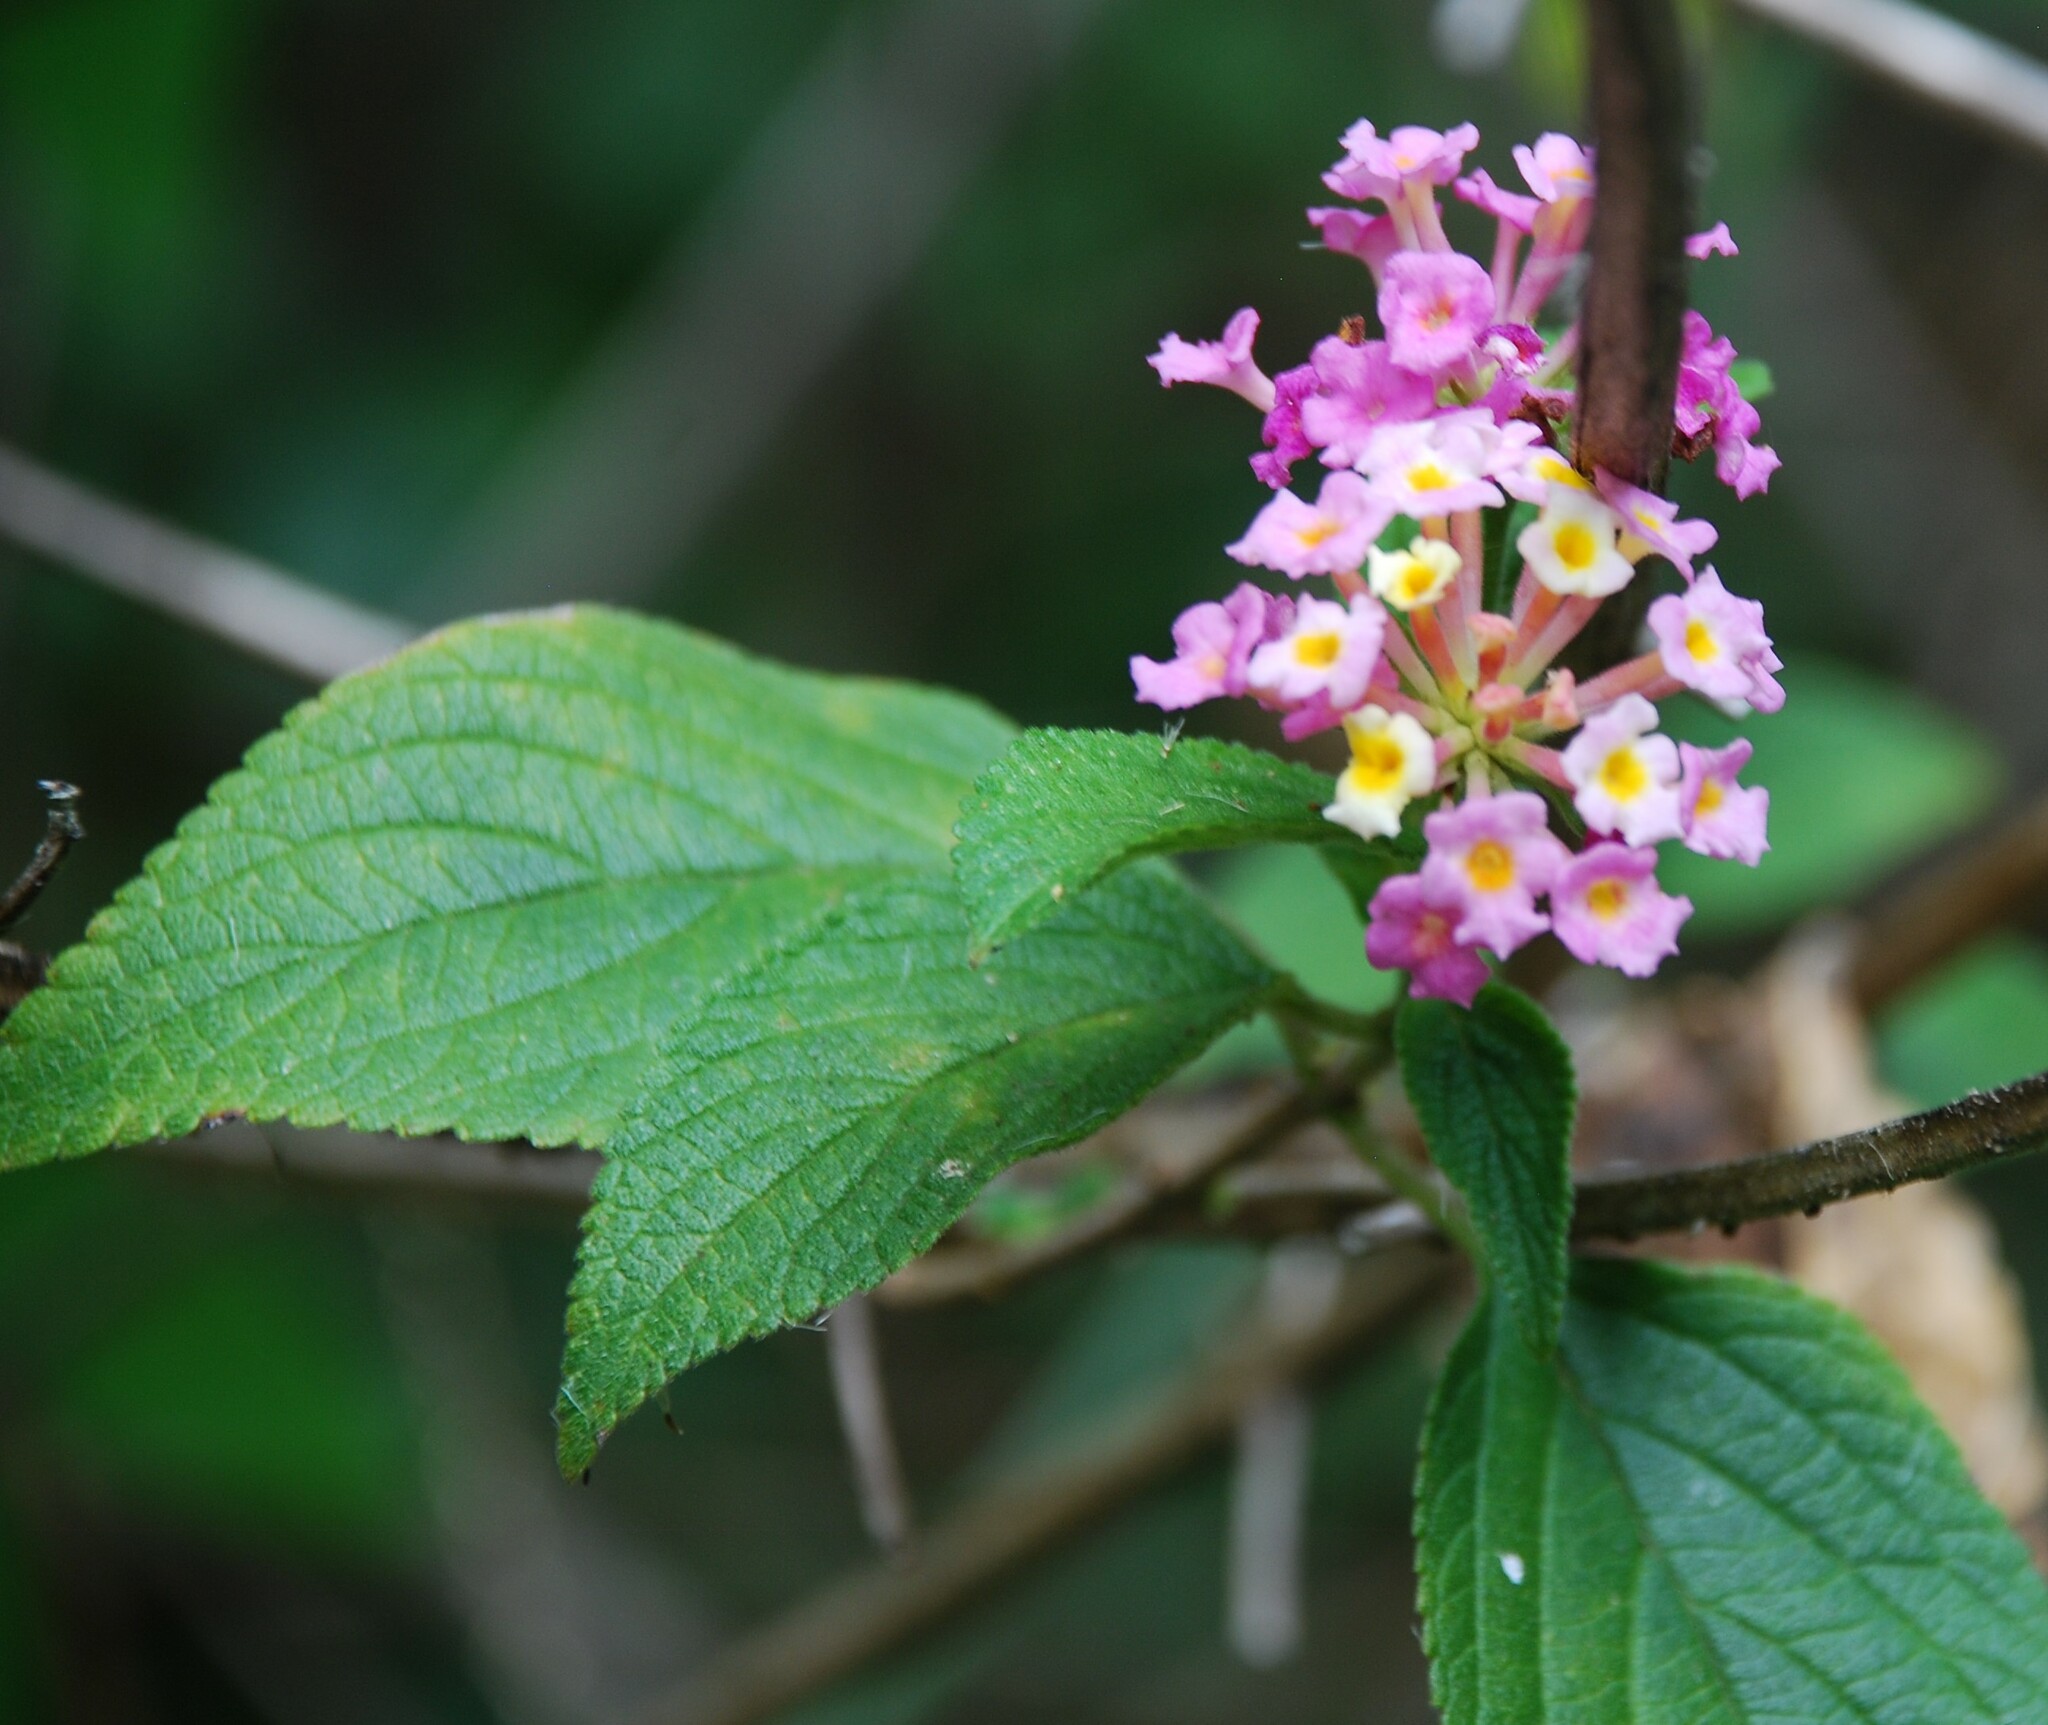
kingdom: Plantae
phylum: Tracheophyta
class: Magnoliopsida
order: Lamiales
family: Verbenaceae
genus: Lantana
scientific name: Lantana camara
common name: Lantana
